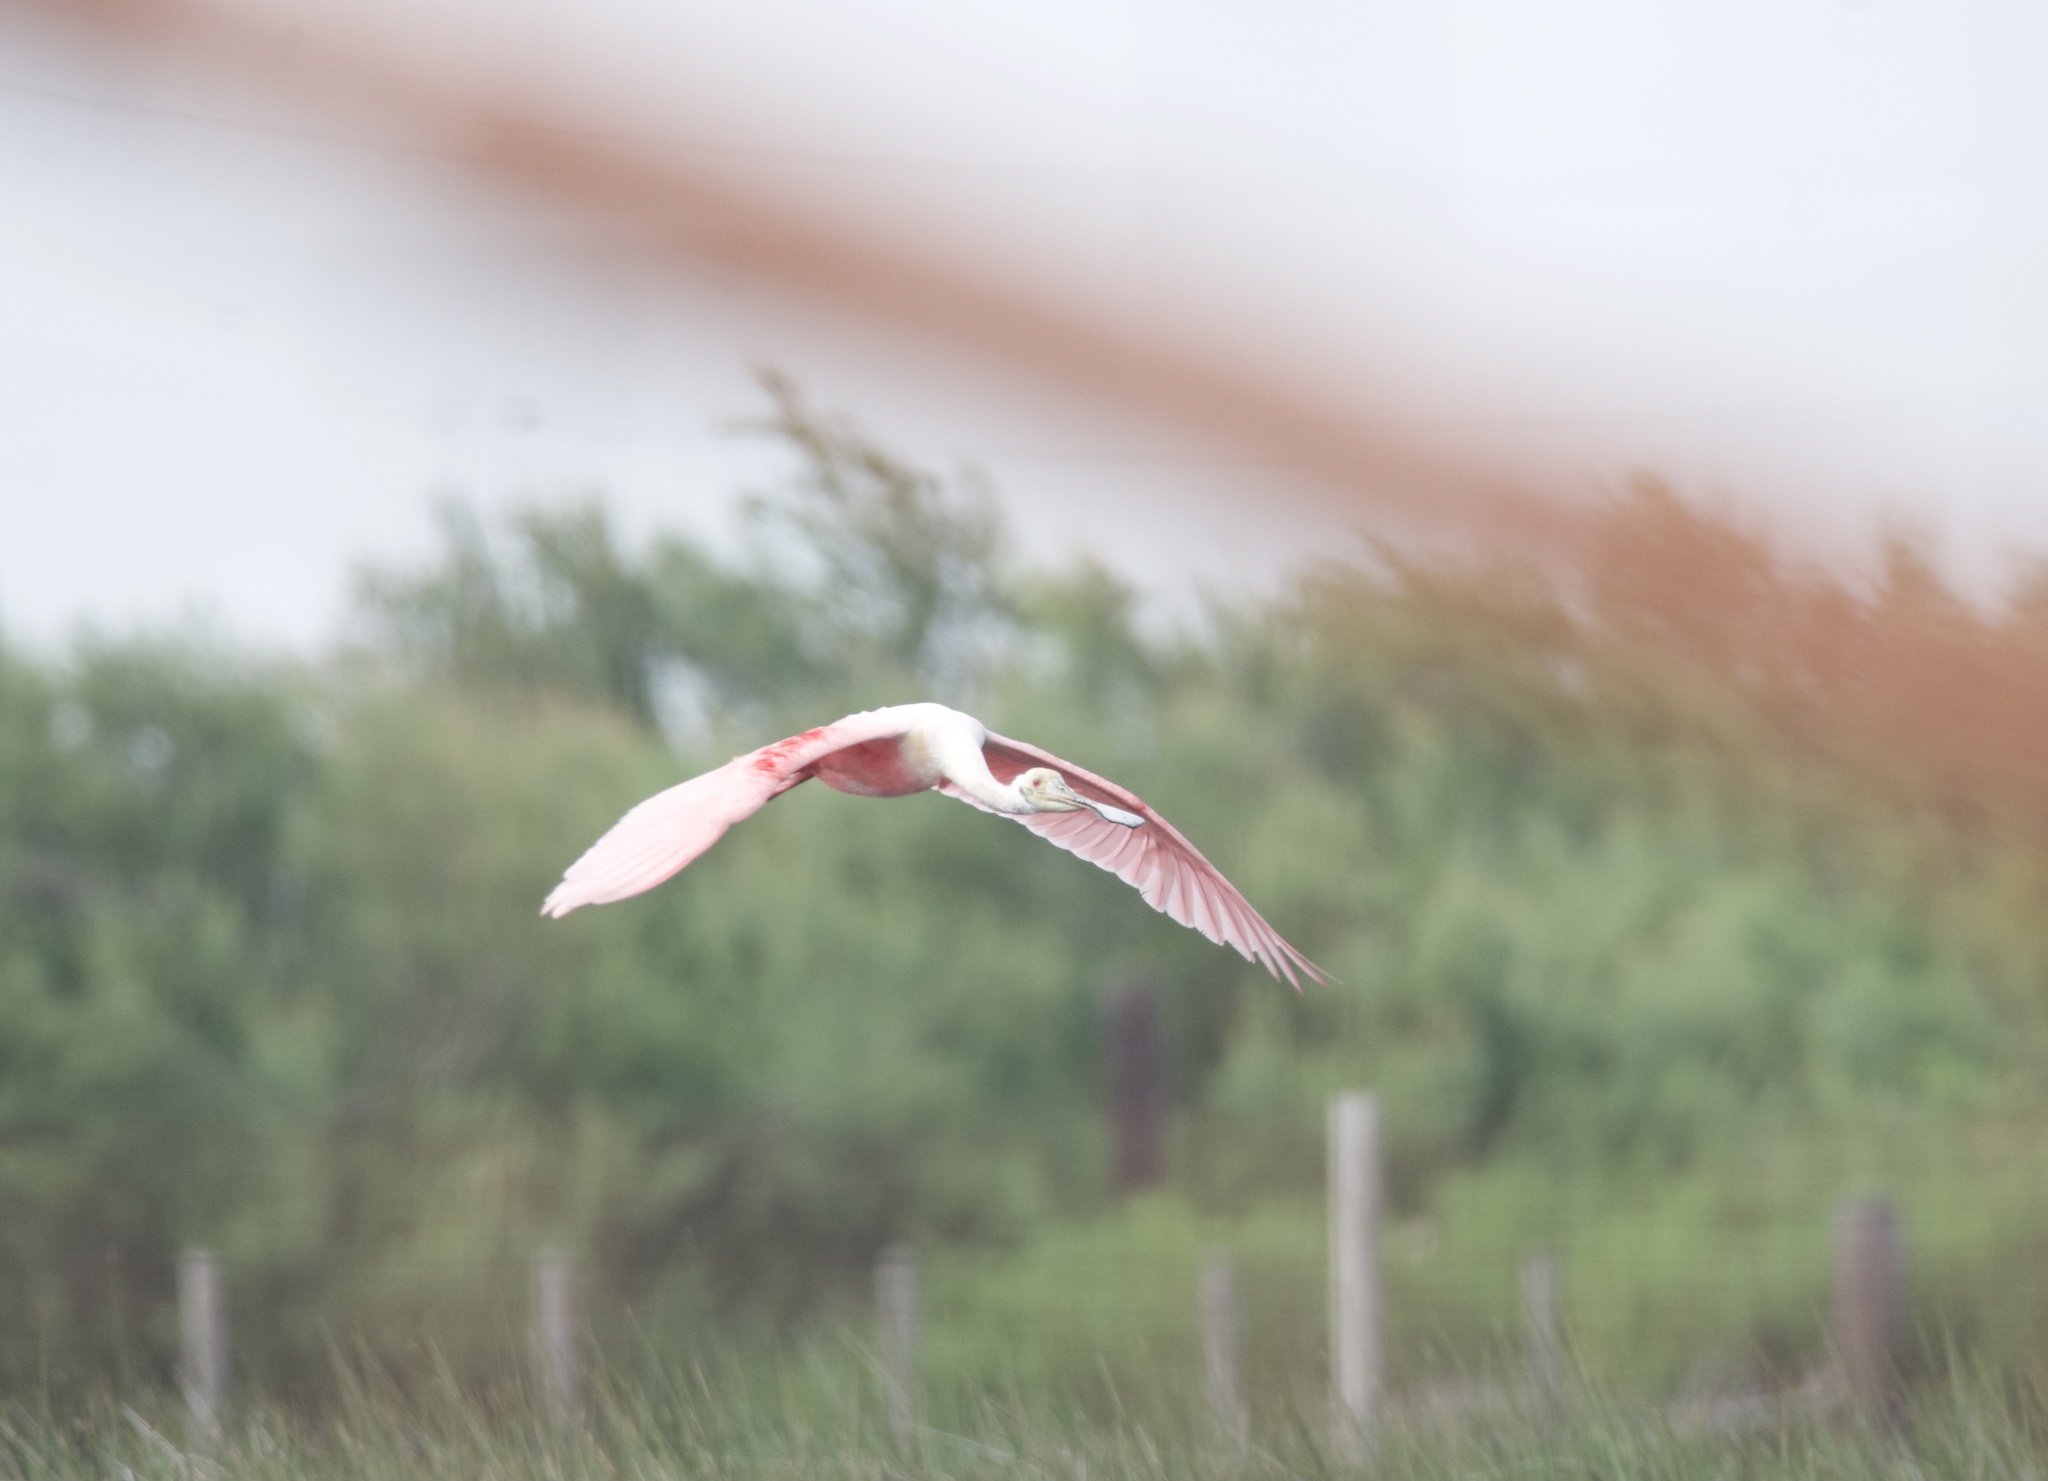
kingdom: Animalia
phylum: Chordata
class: Aves
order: Pelecaniformes
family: Threskiornithidae
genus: Platalea
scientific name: Platalea ajaja
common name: Roseate spoonbill
